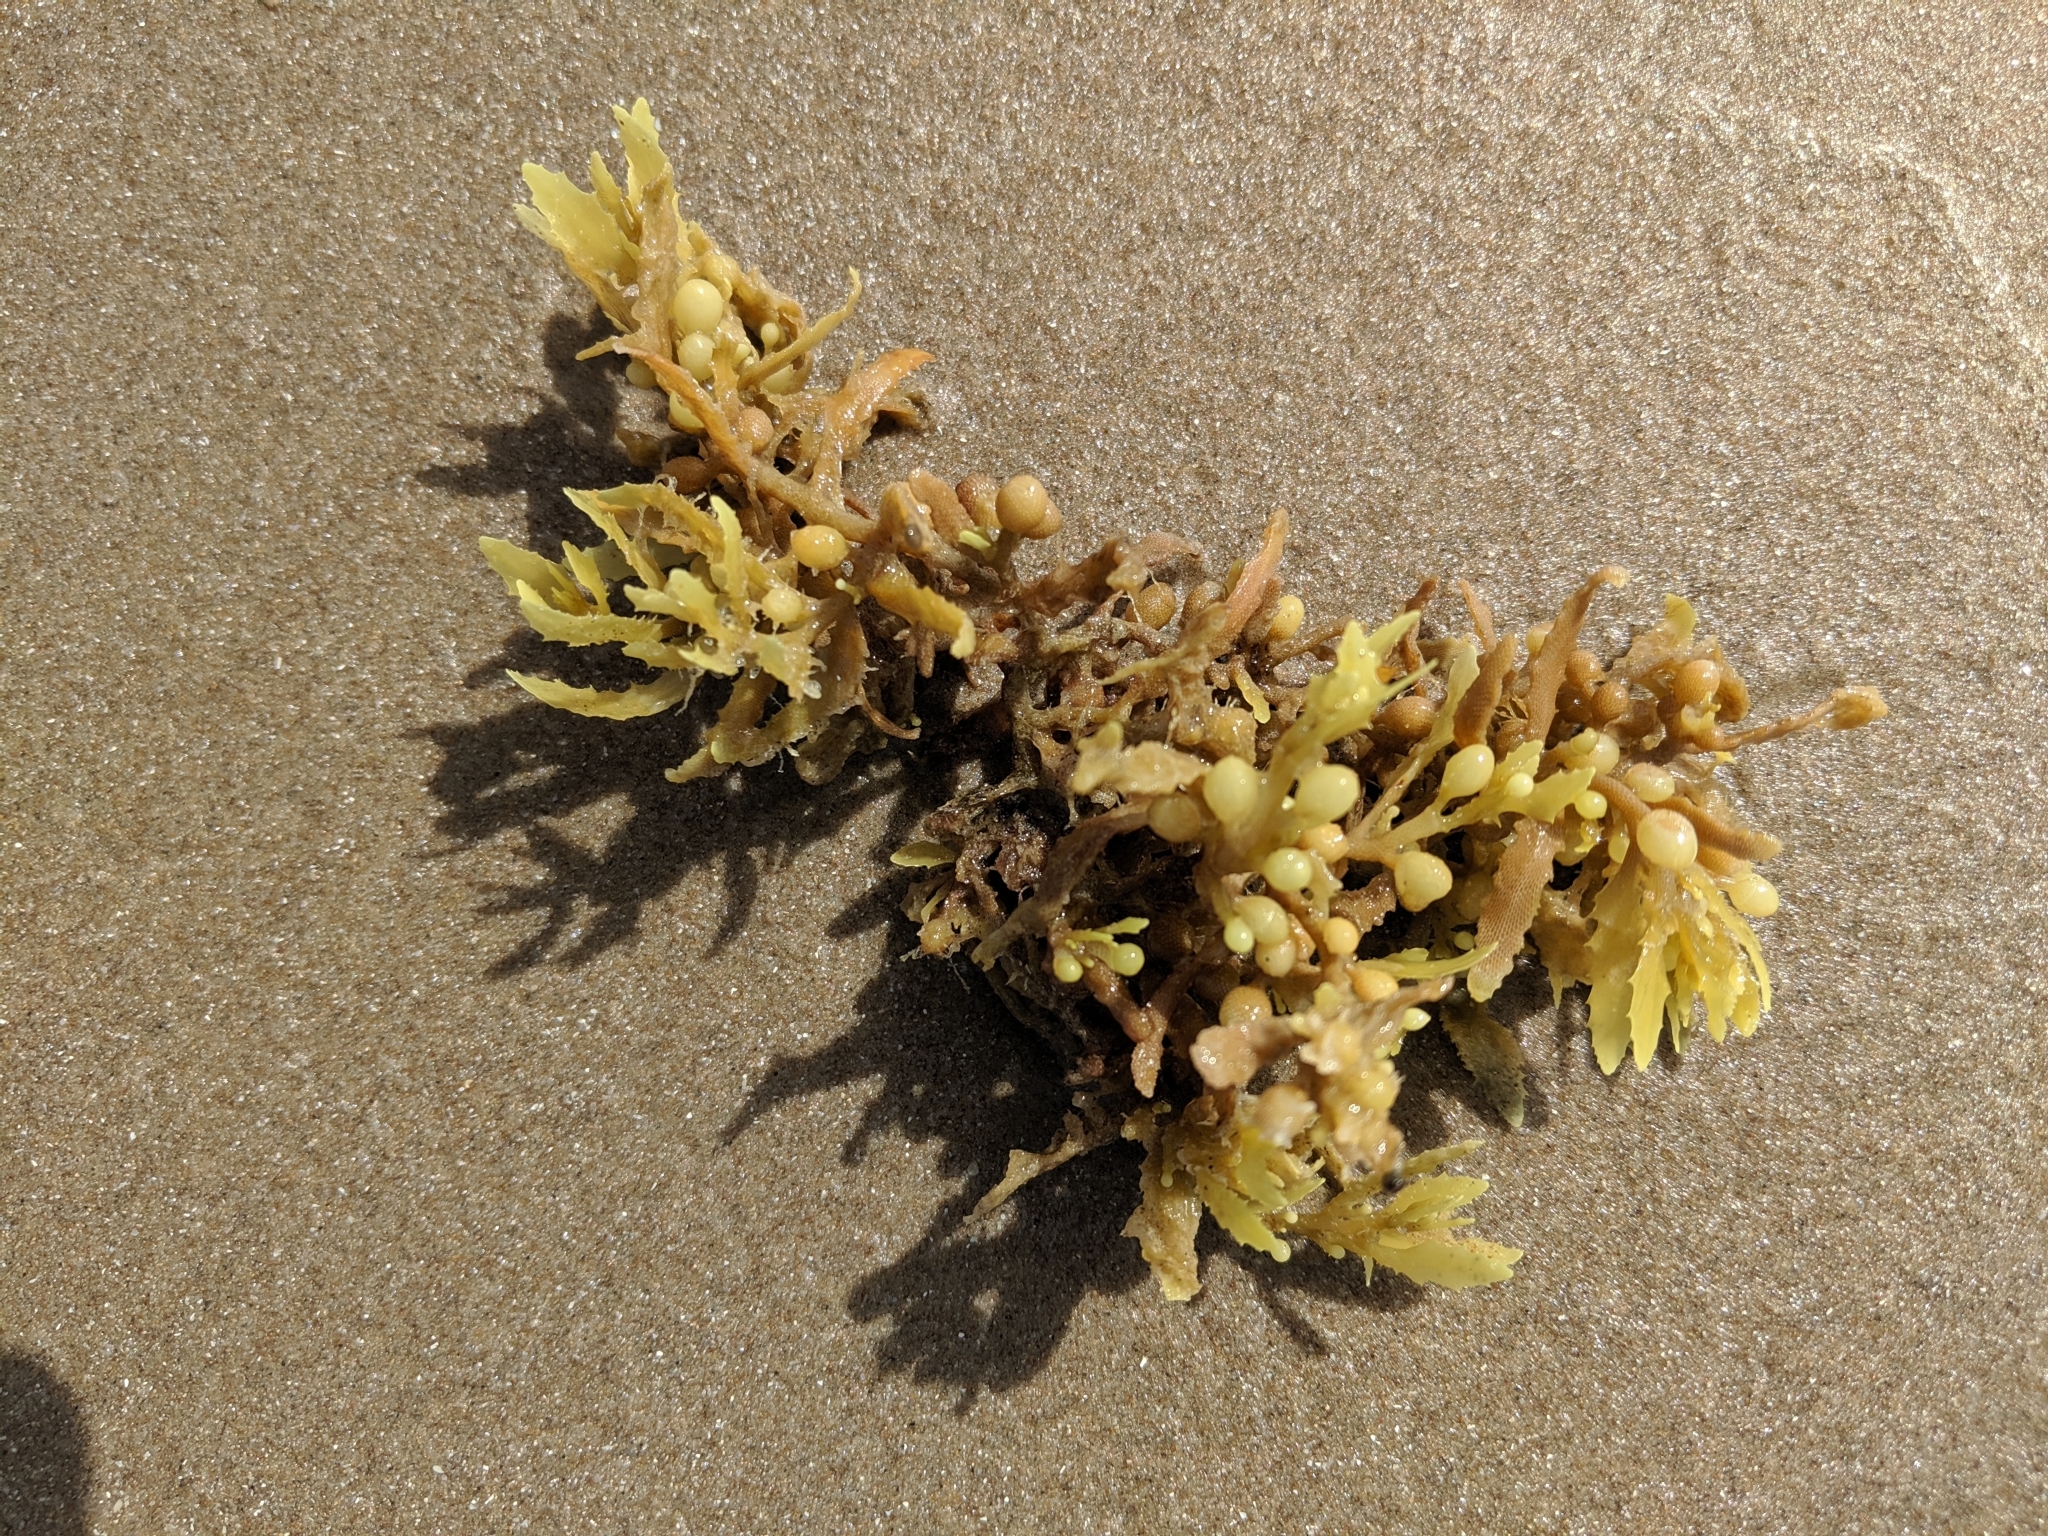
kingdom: Chromista
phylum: Ochrophyta
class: Phaeophyceae
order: Fucales
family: Sargassaceae
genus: Sargassum
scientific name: Sargassum fluitans
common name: Sargassum seaweed
